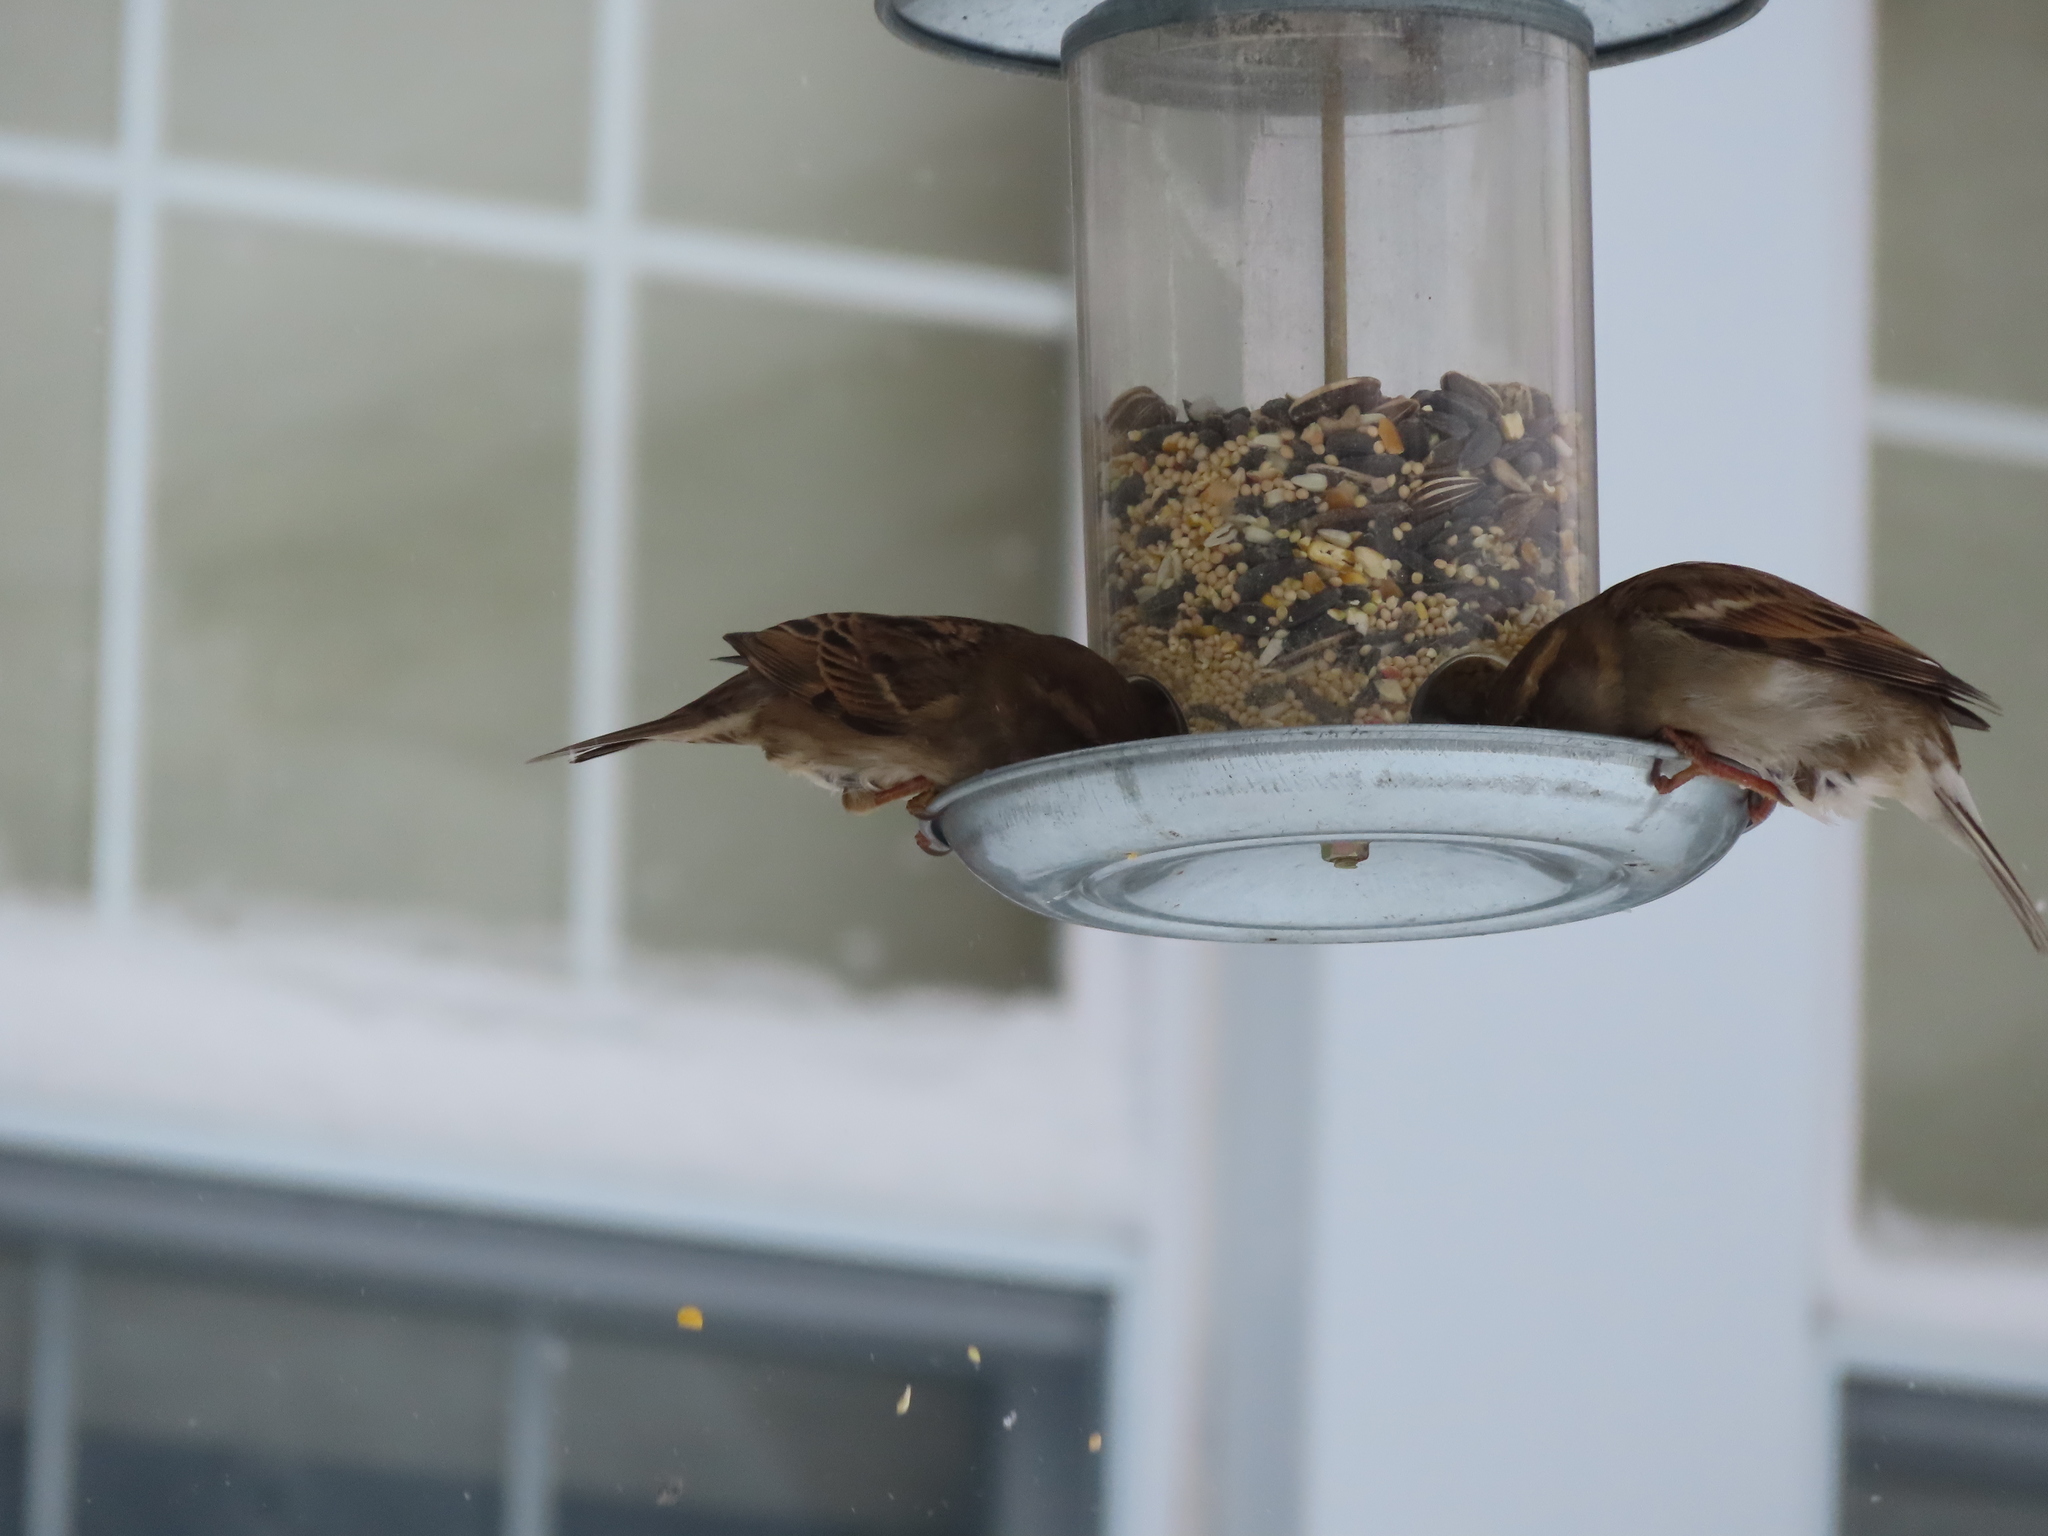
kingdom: Animalia
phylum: Chordata
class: Aves
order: Passeriformes
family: Passeridae
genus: Passer
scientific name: Passer domesticus
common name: House sparrow
